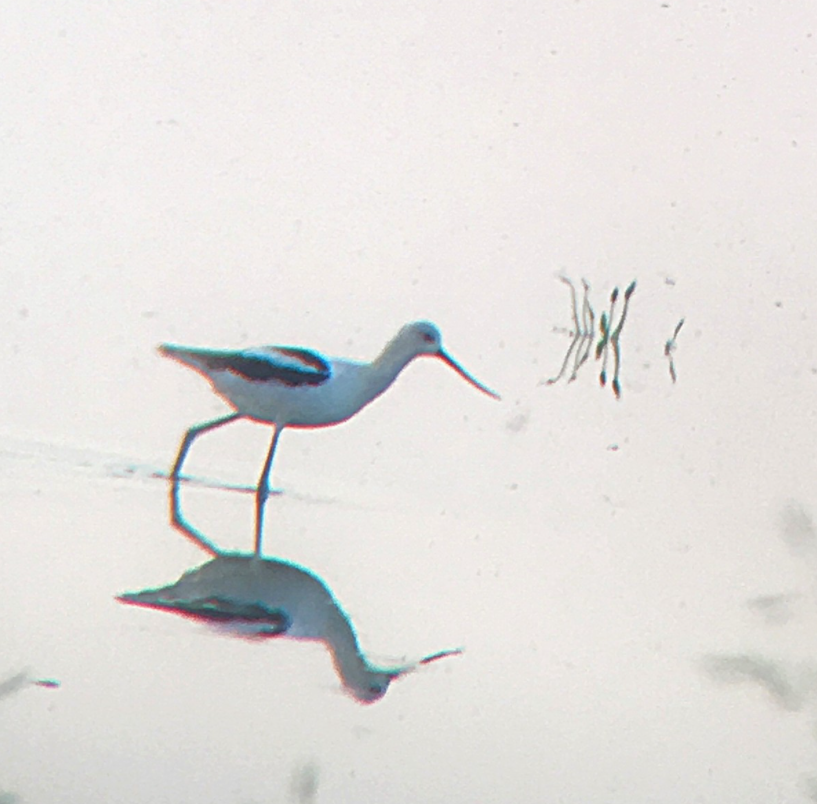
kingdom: Animalia
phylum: Chordata
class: Aves
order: Charadriiformes
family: Recurvirostridae
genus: Recurvirostra
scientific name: Recurvirostra americana
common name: American avocet
